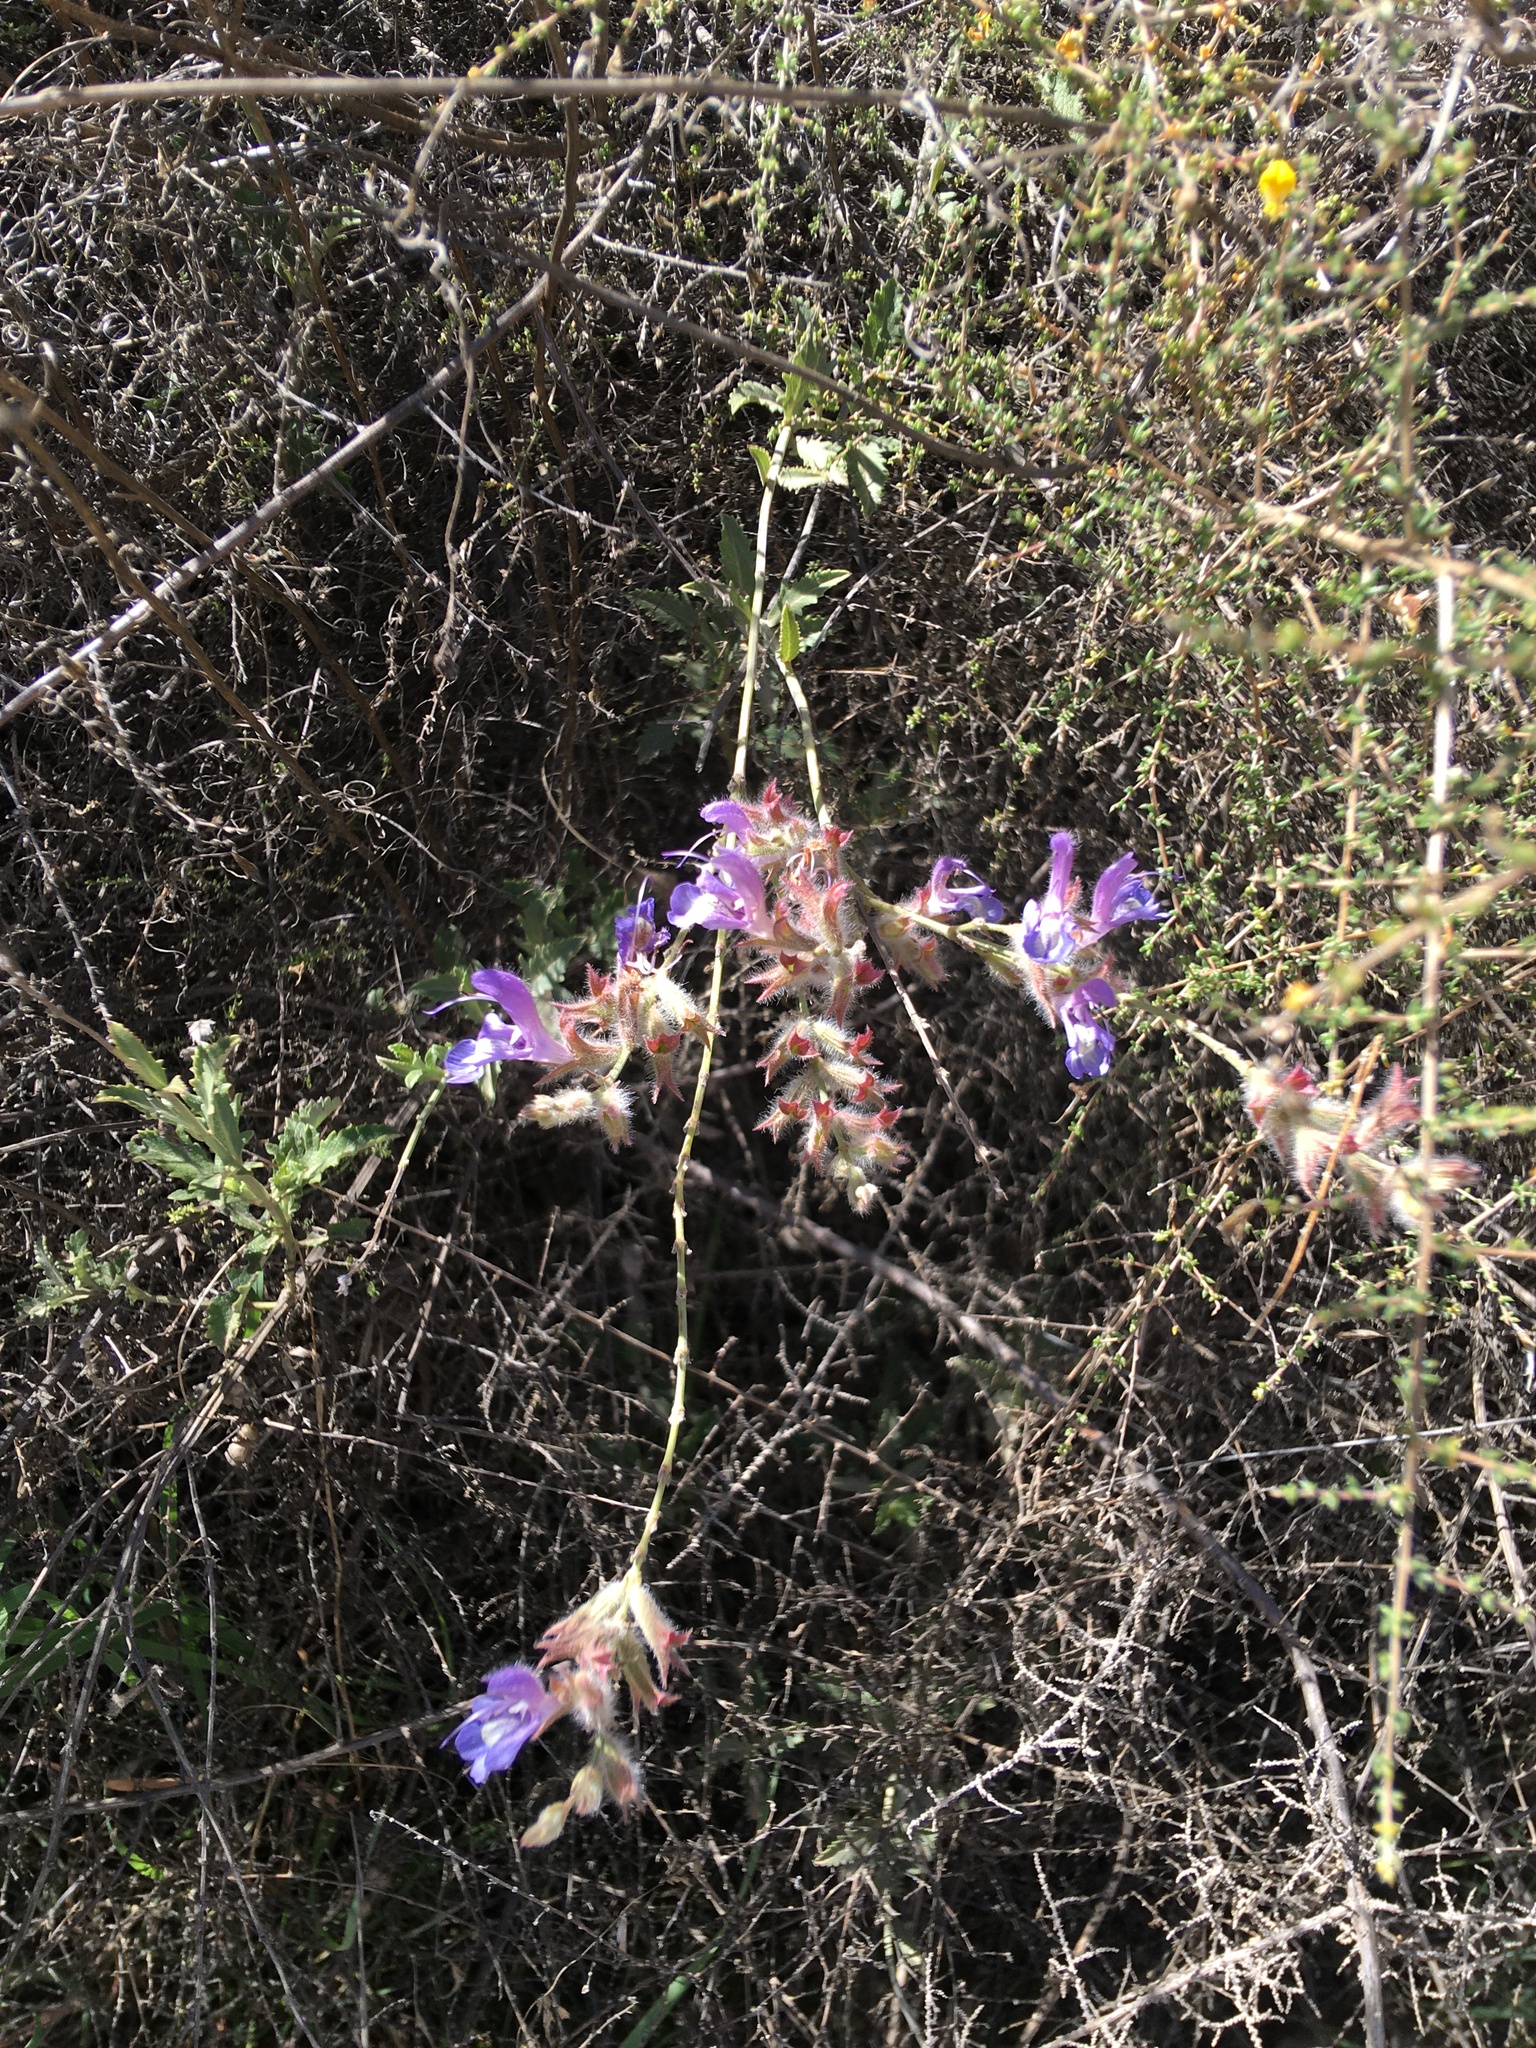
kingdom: Plantae
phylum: Tracheophyta
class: Magnoliopsida
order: Lamiales
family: Lamiaceae
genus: Salvia
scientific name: Salvia albicaulis
